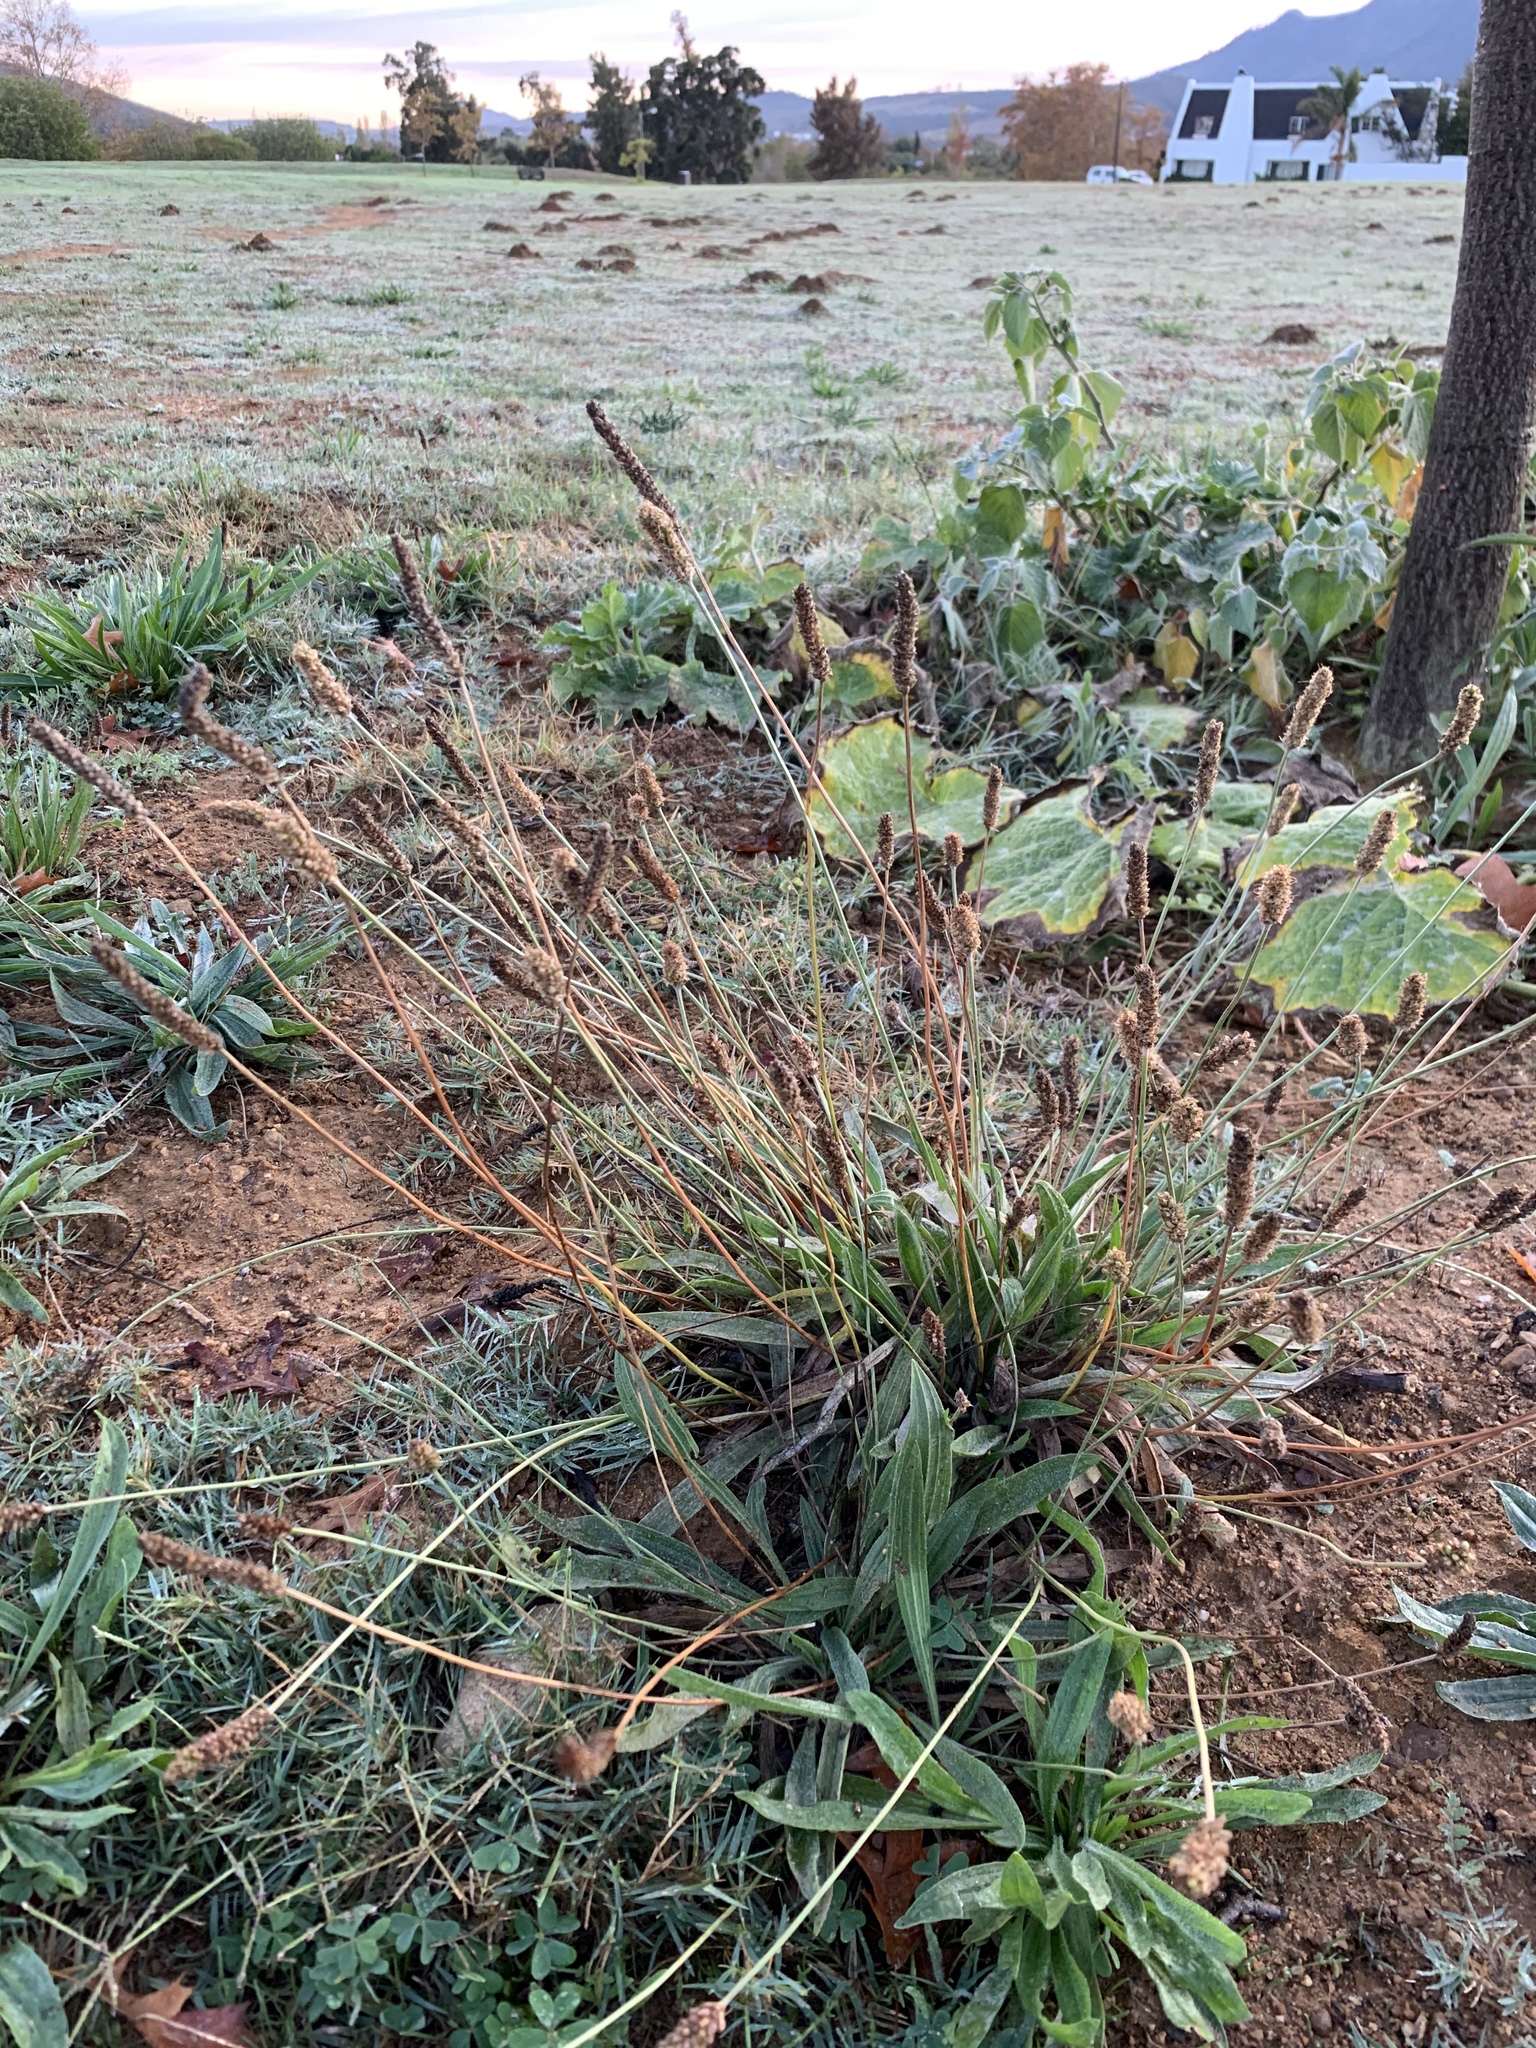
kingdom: Plantae
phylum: Tracheophyta
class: Magnoliopsida
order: Lamiales
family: Plantaginaceae
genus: Plantago
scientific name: Plantago lanceolata
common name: Ribwort plantain
